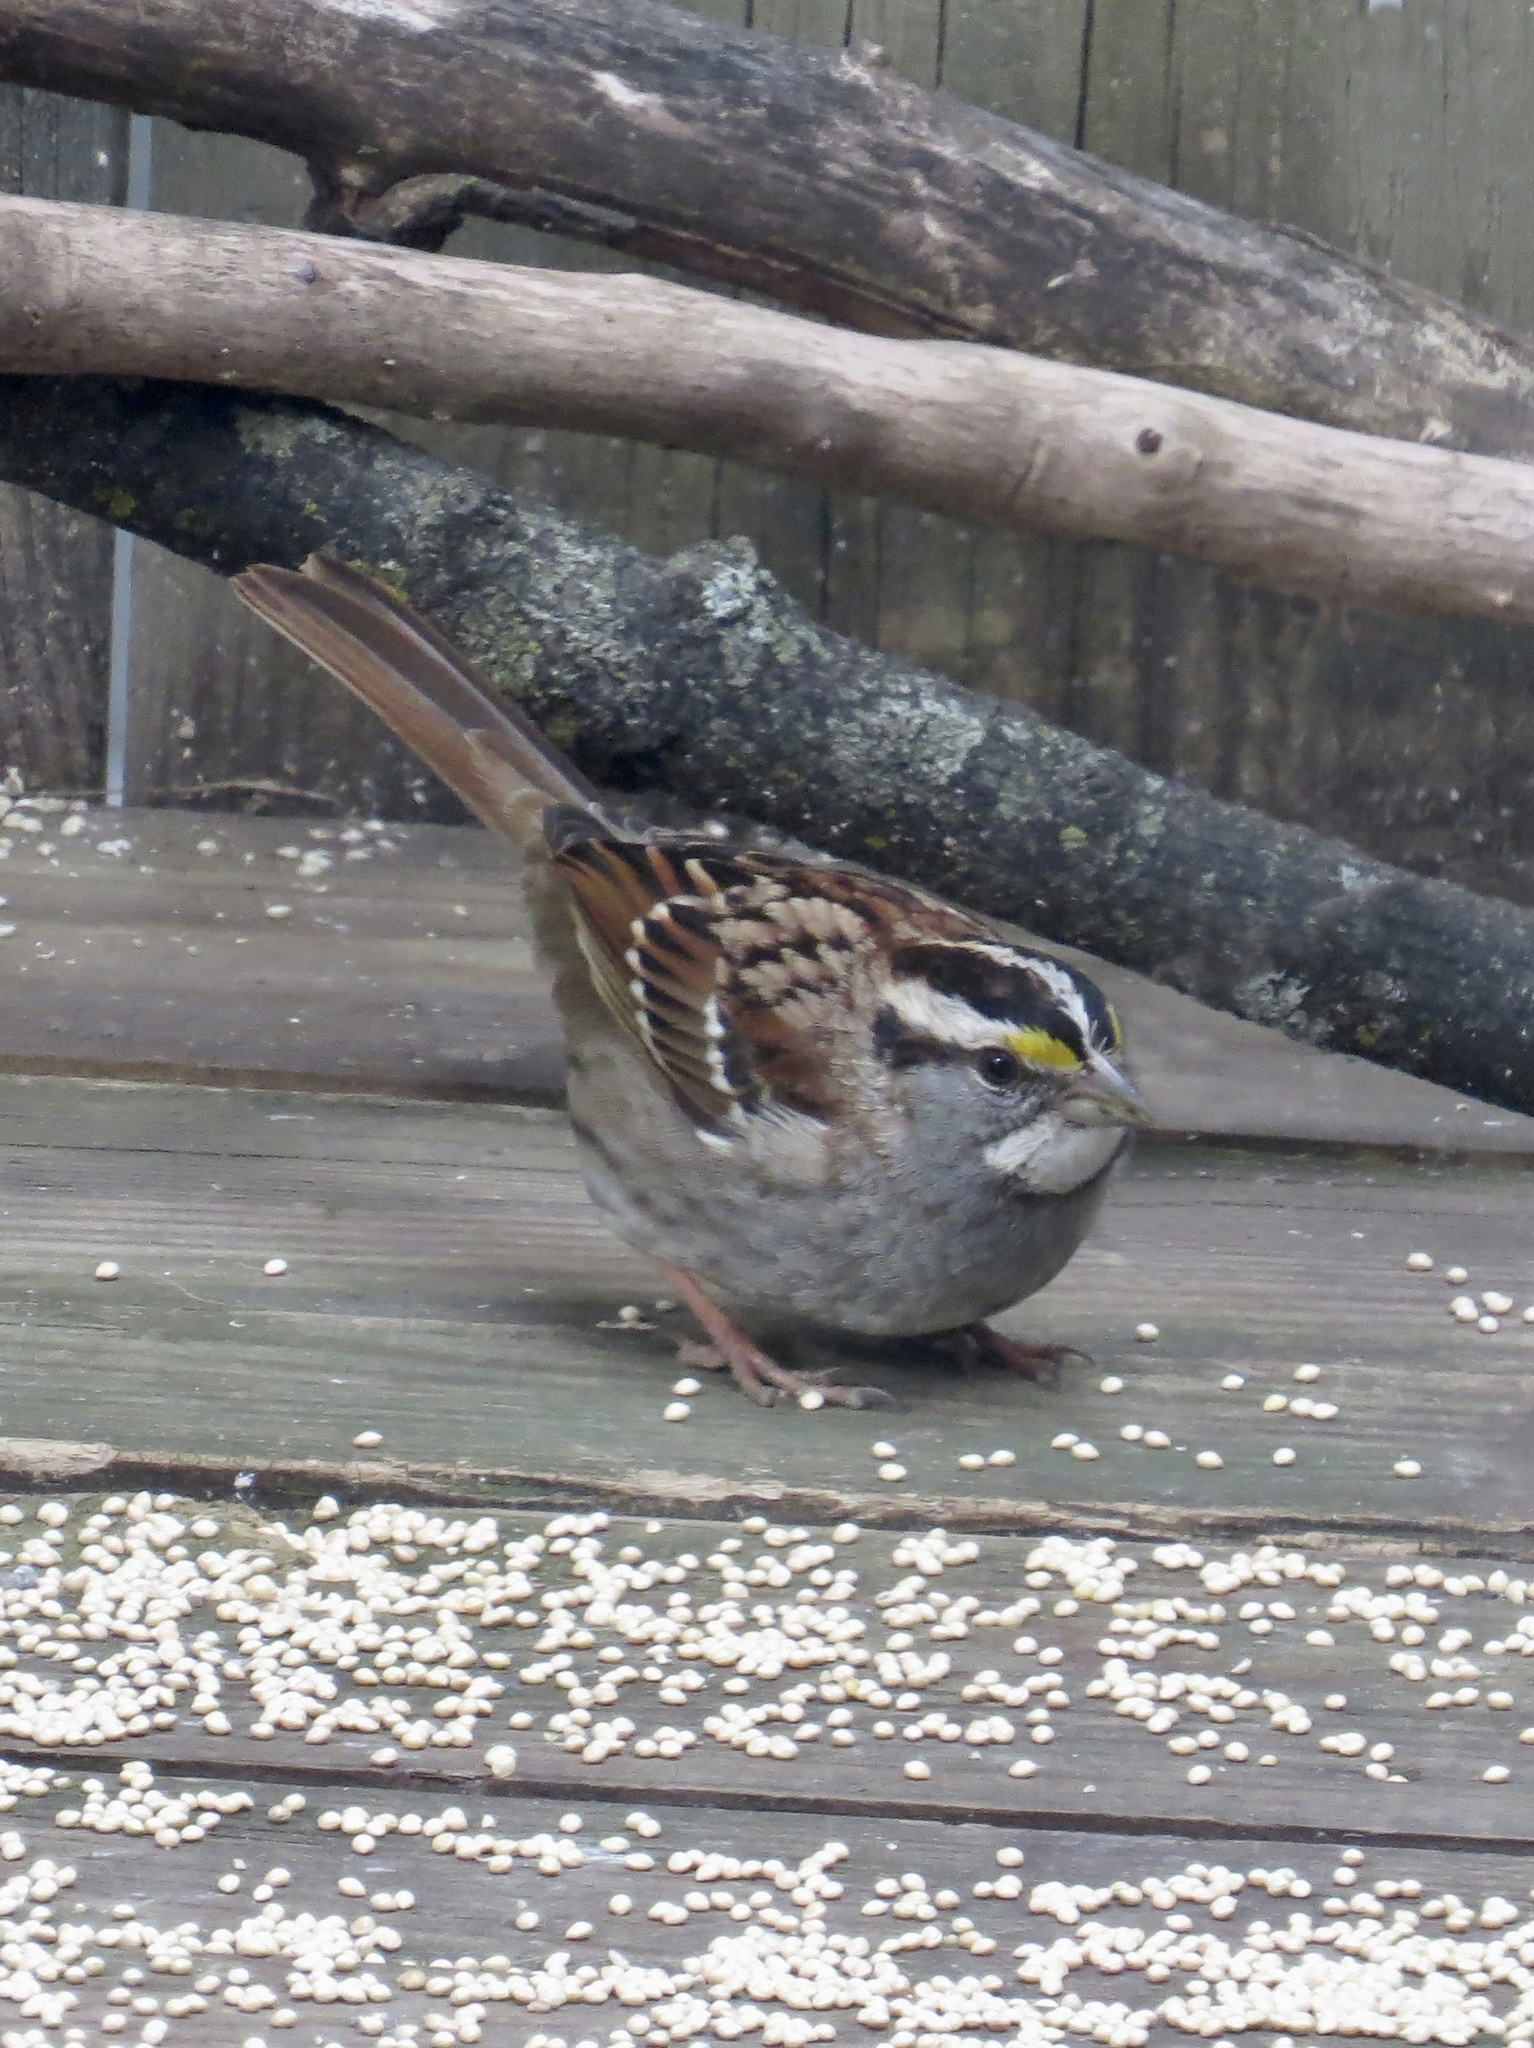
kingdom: Animalia
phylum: Chordata
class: Aves
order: Passeriformes
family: Passerellidae
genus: Zonotrichia
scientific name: Zonotrichia albicollis
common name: White-throated sparrow
